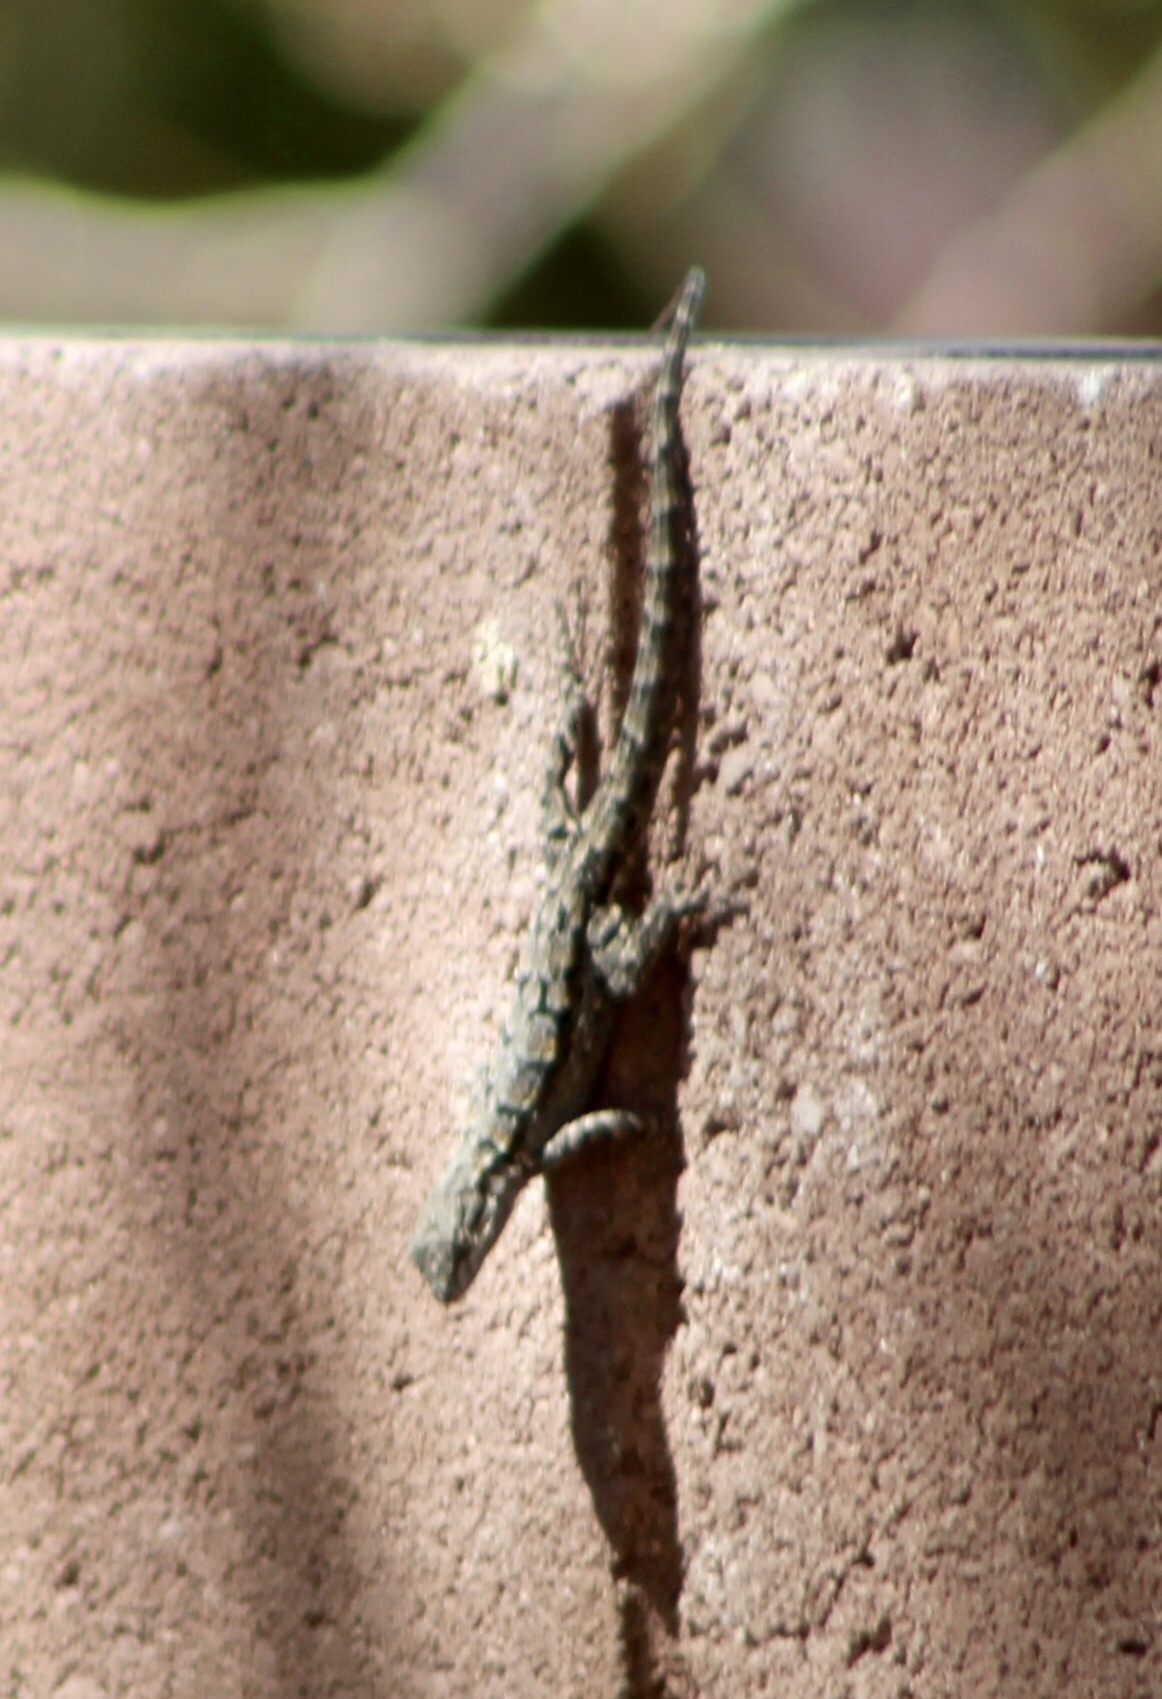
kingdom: Animalia
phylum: Chordata
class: Squamata
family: Phrynosomatidae
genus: Urosaurus
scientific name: Urosaurus ornatus
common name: Ornate tree lizard
